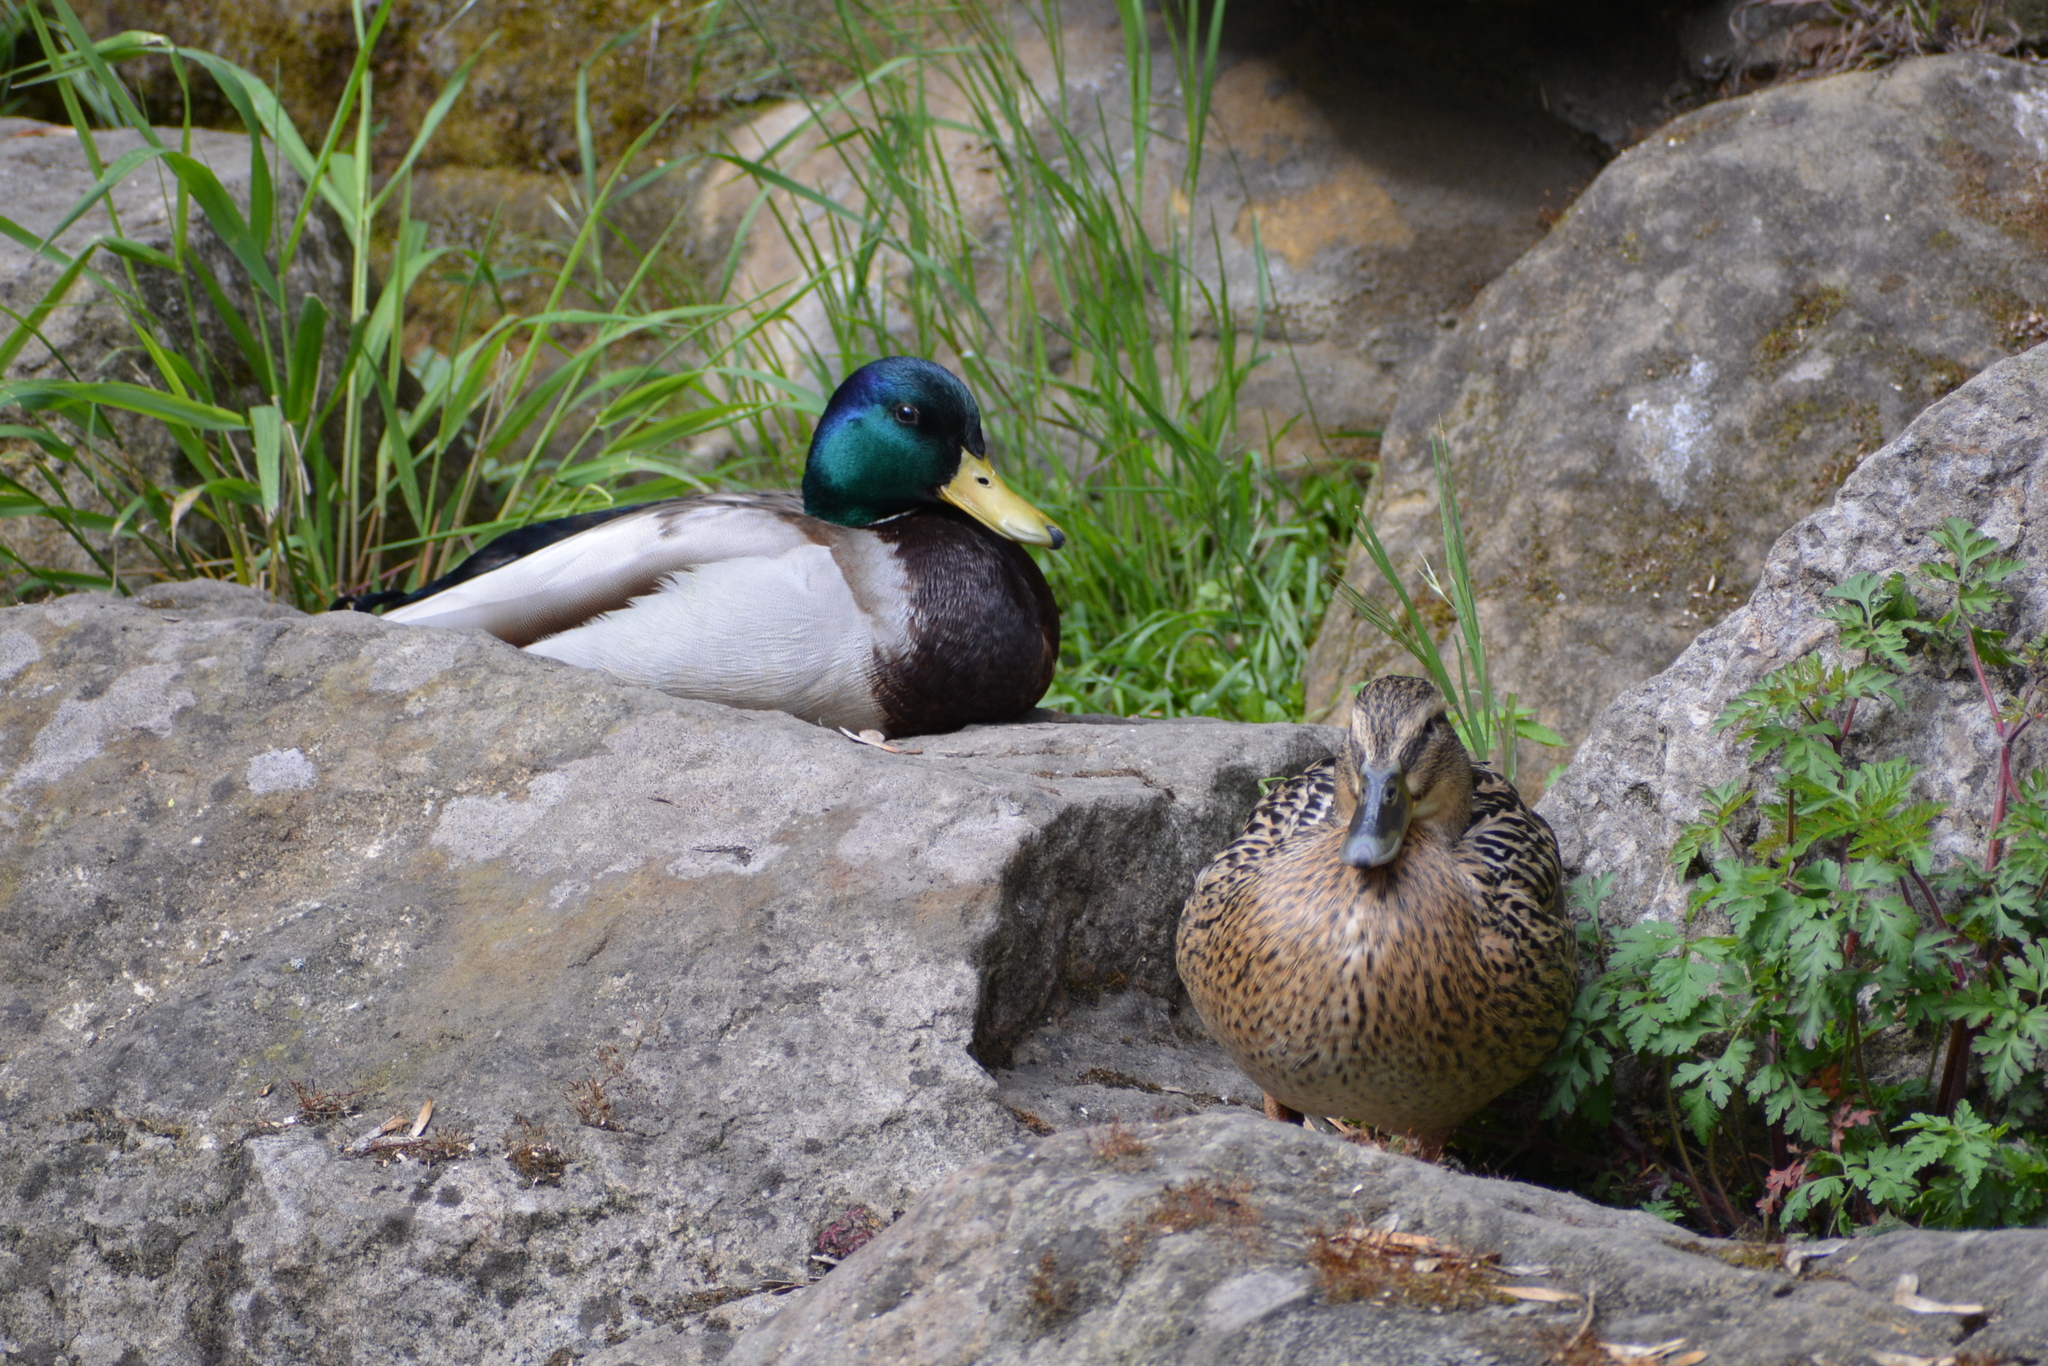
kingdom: Animalia
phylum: Chordata
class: Aves
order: Anseriformes
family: Anatidae
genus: Anas
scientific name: Anas platyrhynchos
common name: Mallard
